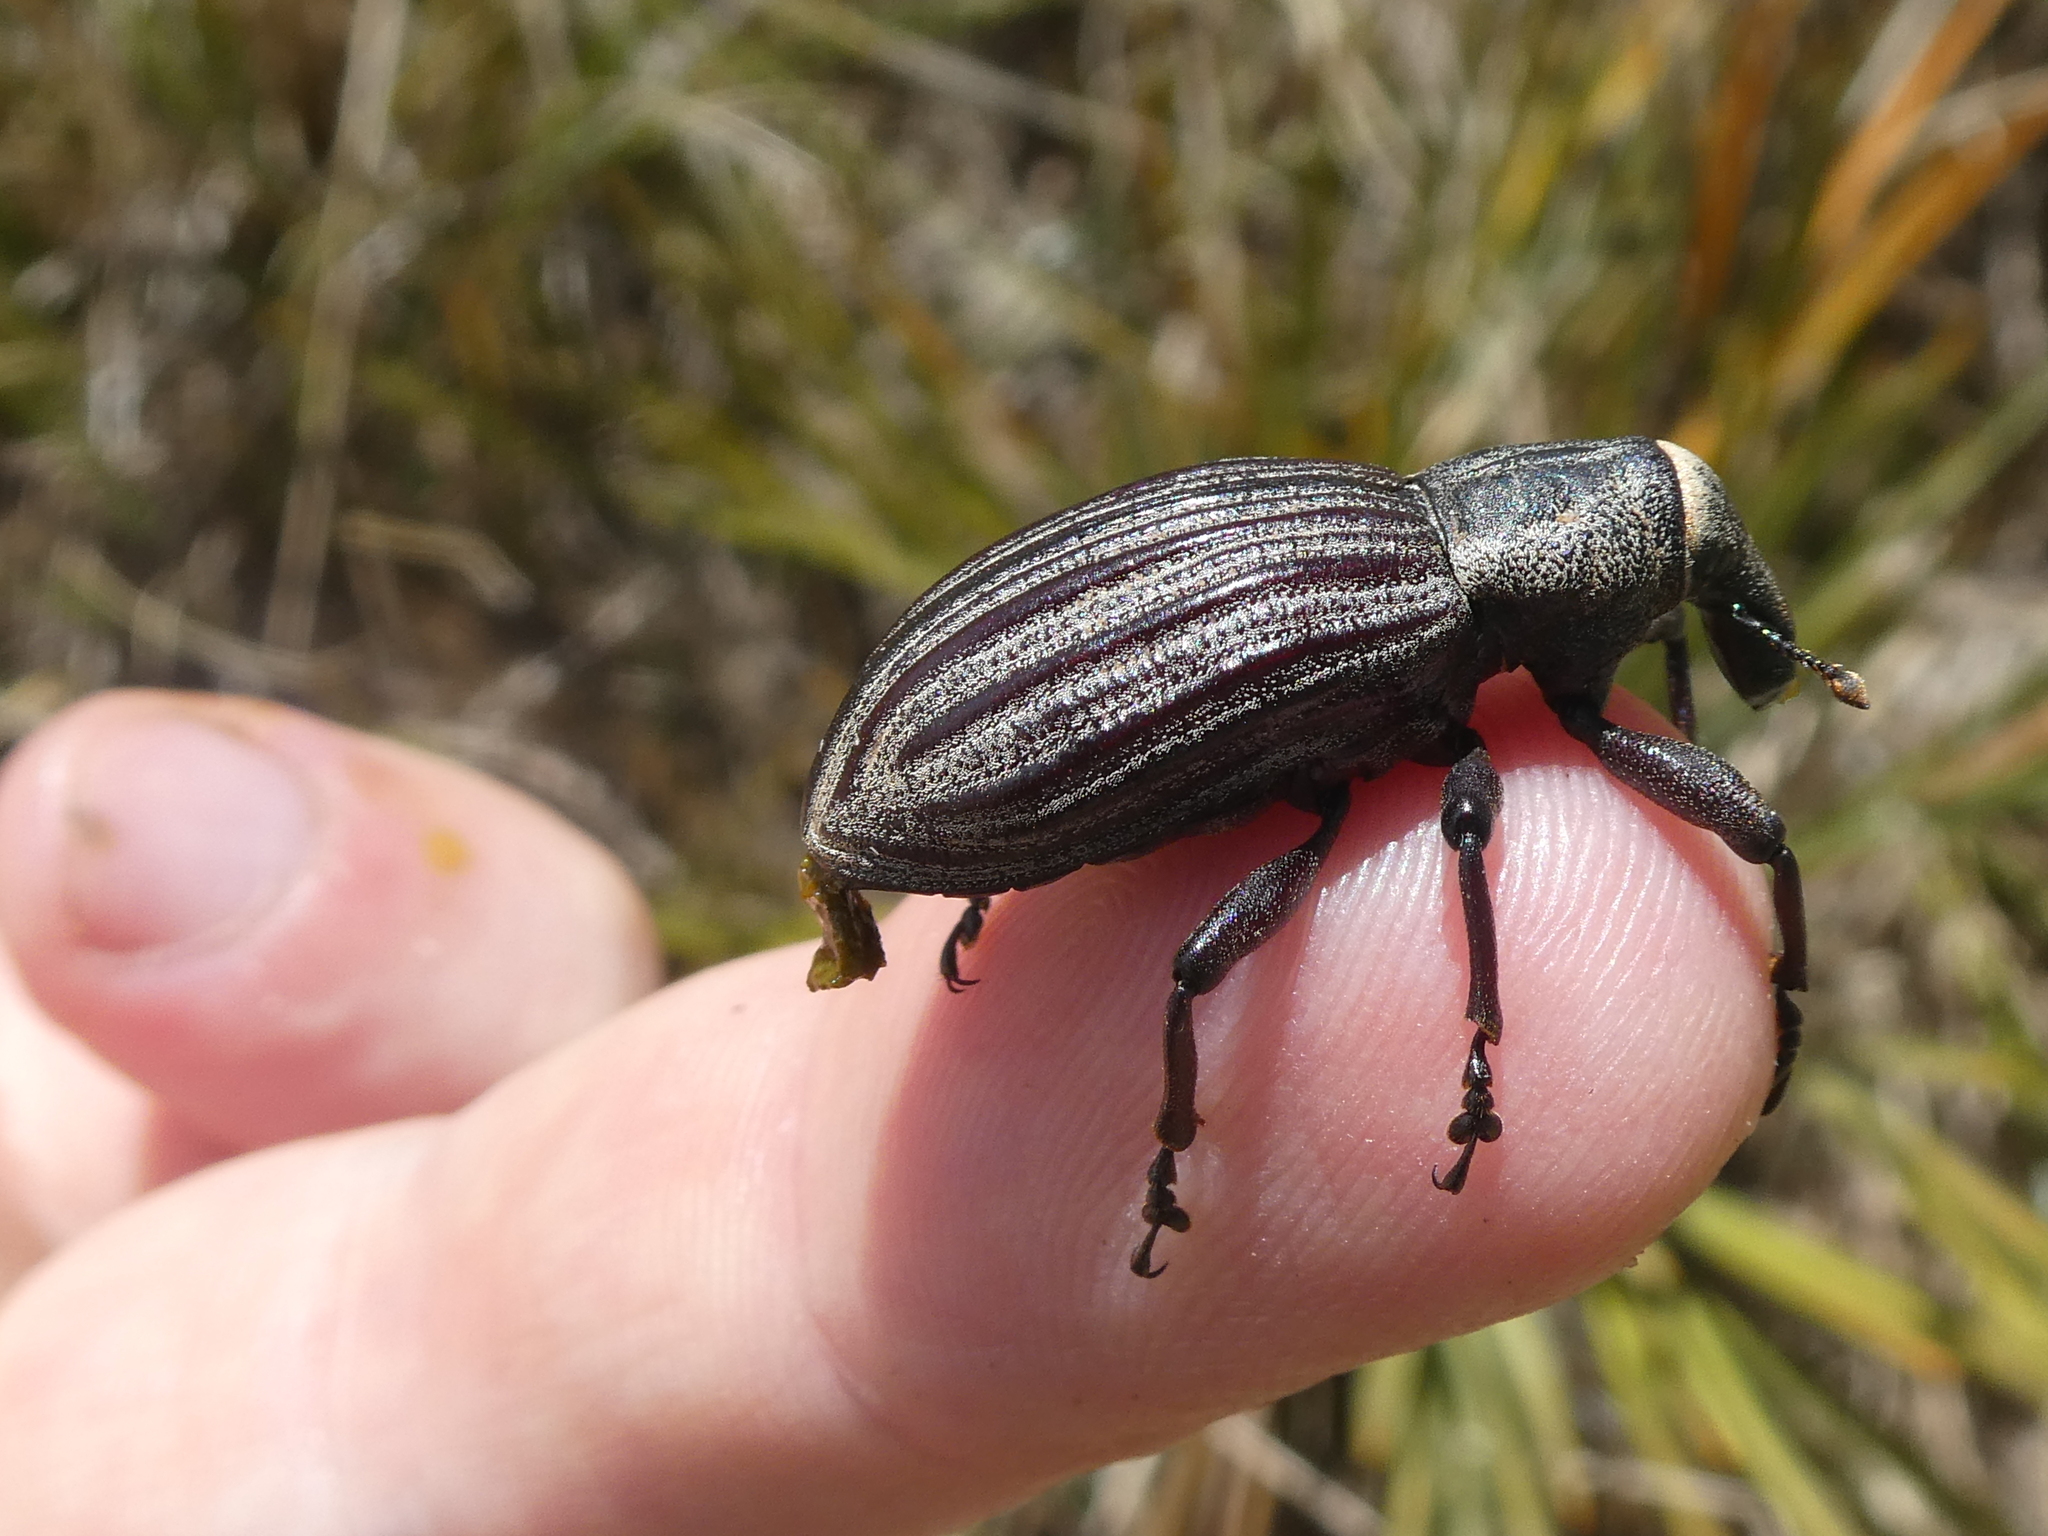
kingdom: Animalia
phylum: Arthropoda
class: Insecta
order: Coleoptera
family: Curculionidae
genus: Lyperobius
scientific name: Lyperobius clarkei
